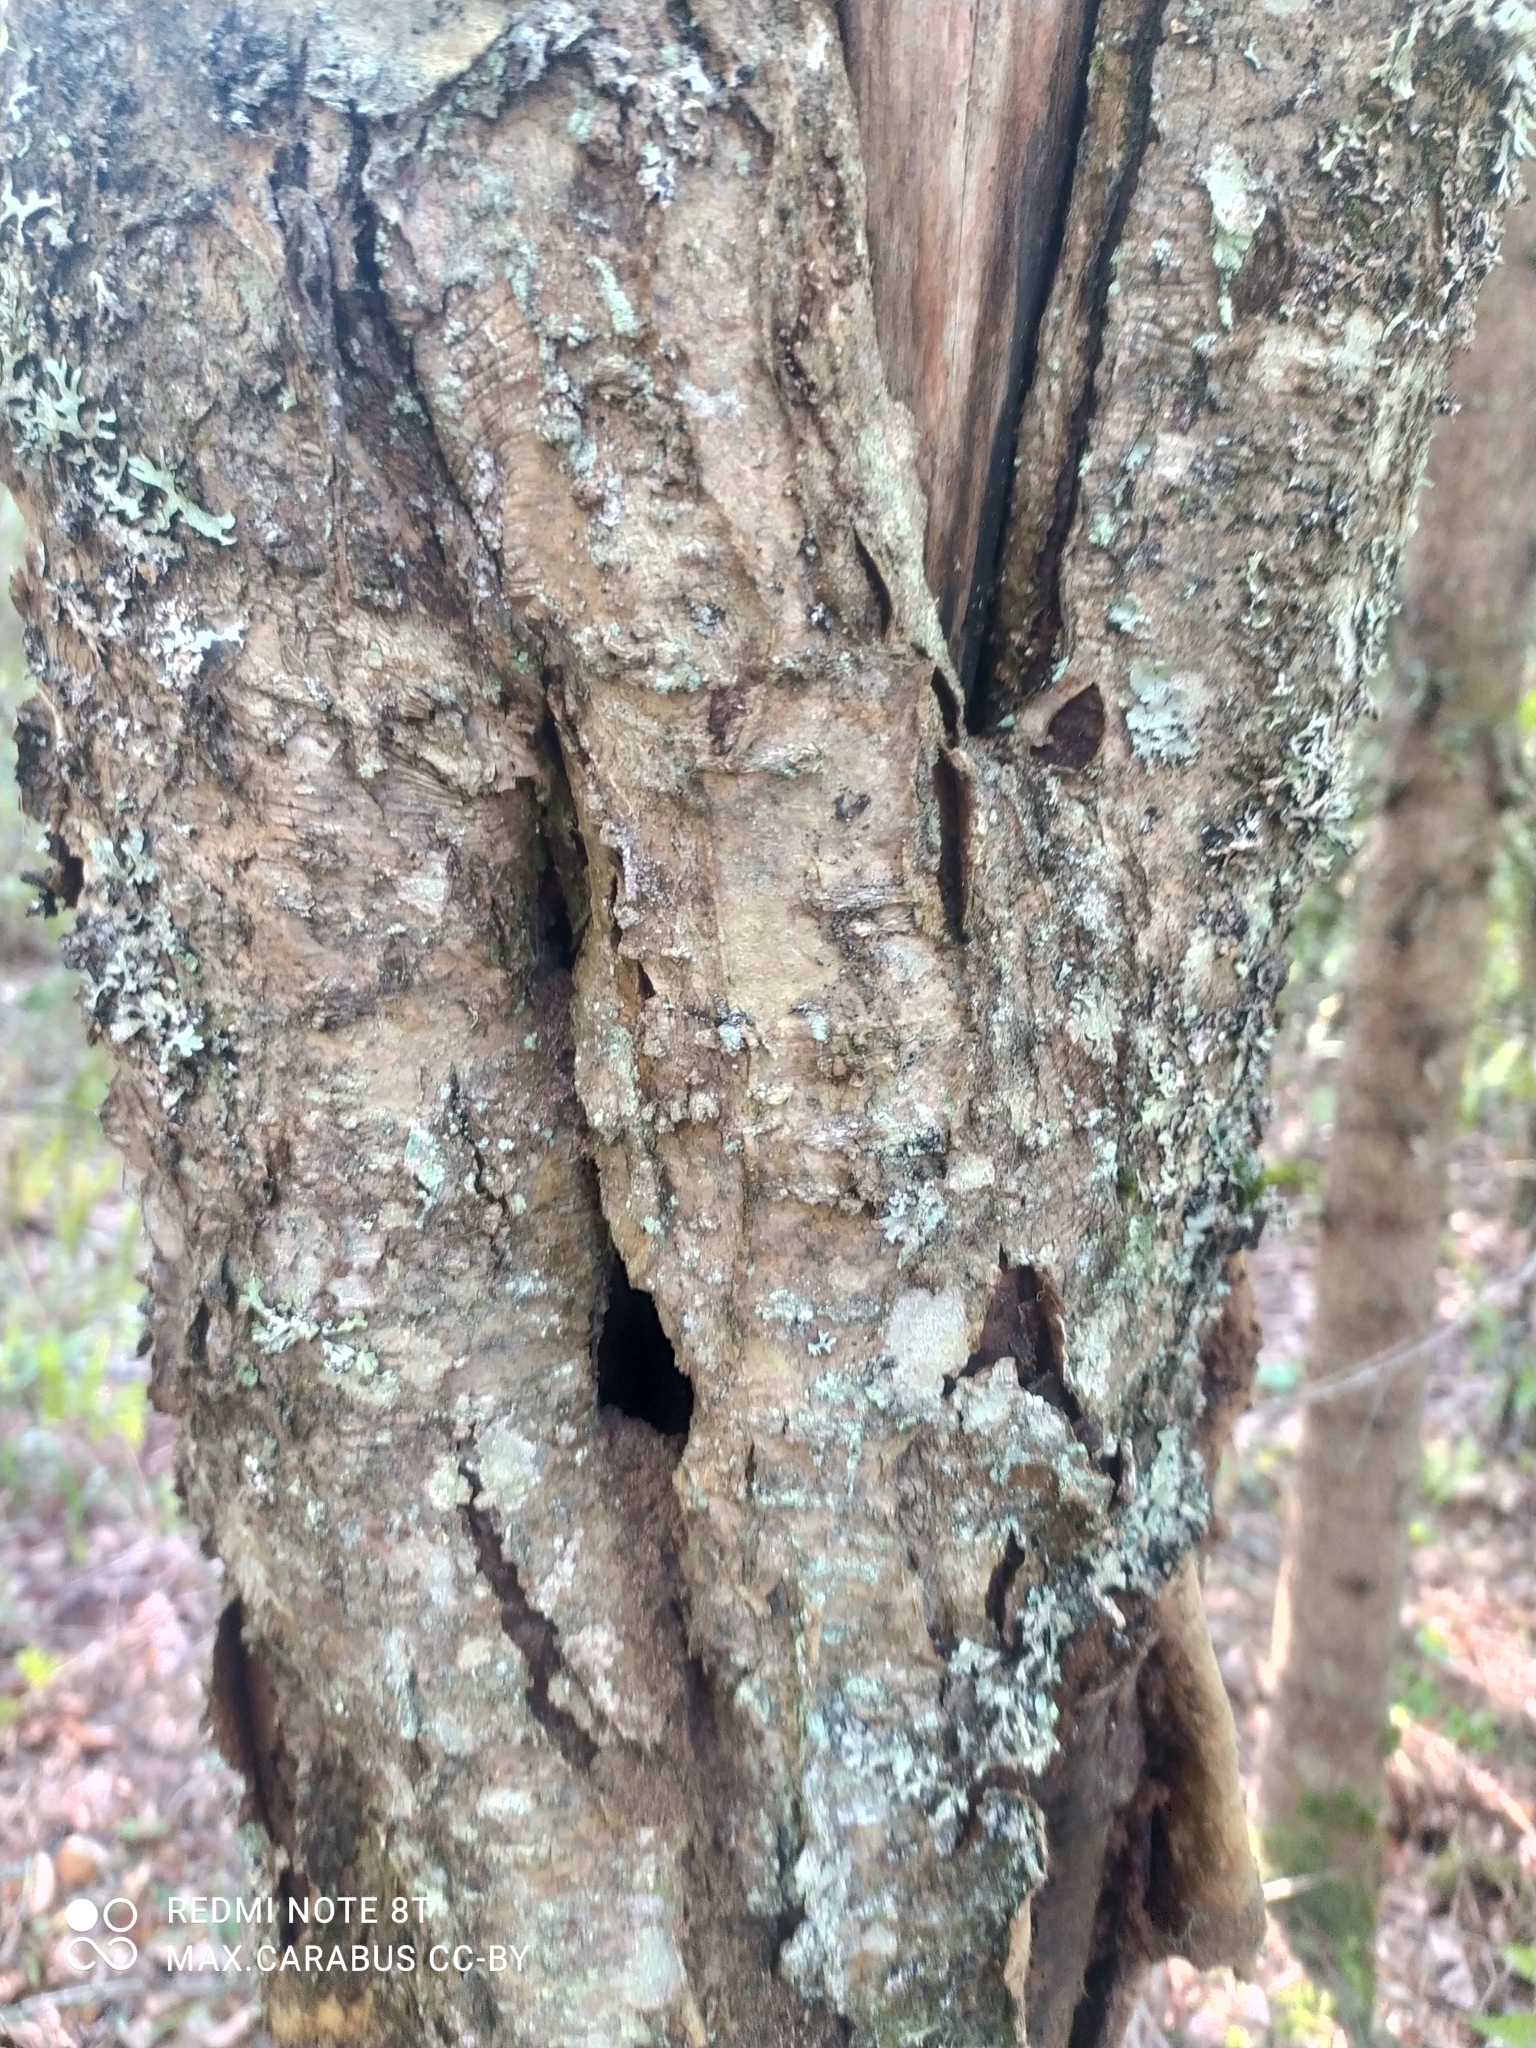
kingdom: Plantae
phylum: Tracheophyta
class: Magnoliopsida
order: Rosales
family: Rosaceae
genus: Sorbus
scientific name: Sorbus aucuparia
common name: Rowan
